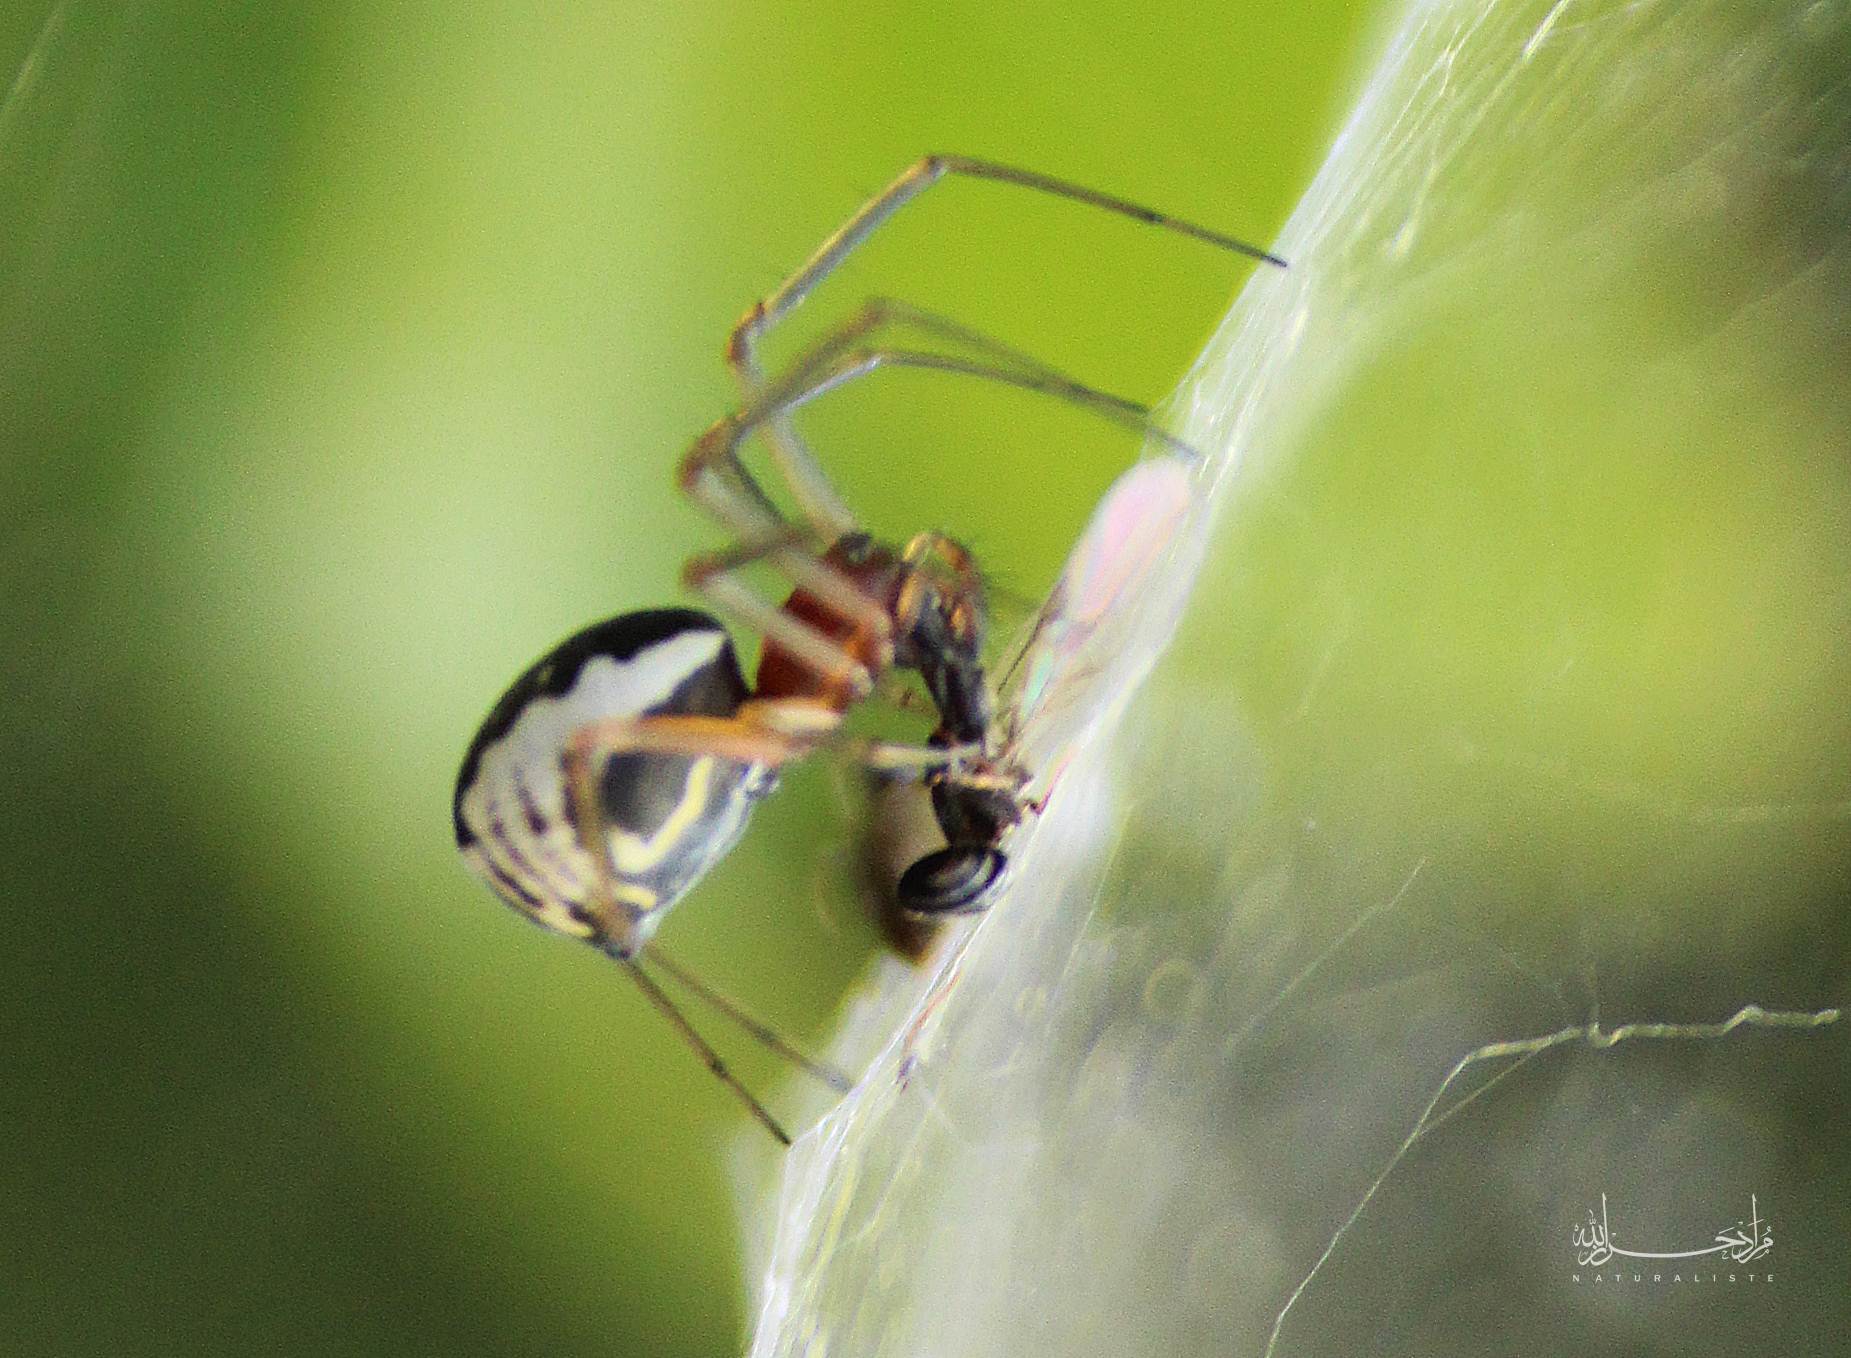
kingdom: Animalia
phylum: Arthropoda
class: Arachnida
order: Araneae
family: Linyphiidae
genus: Frontinellina
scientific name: Frontinellina frutetorum
